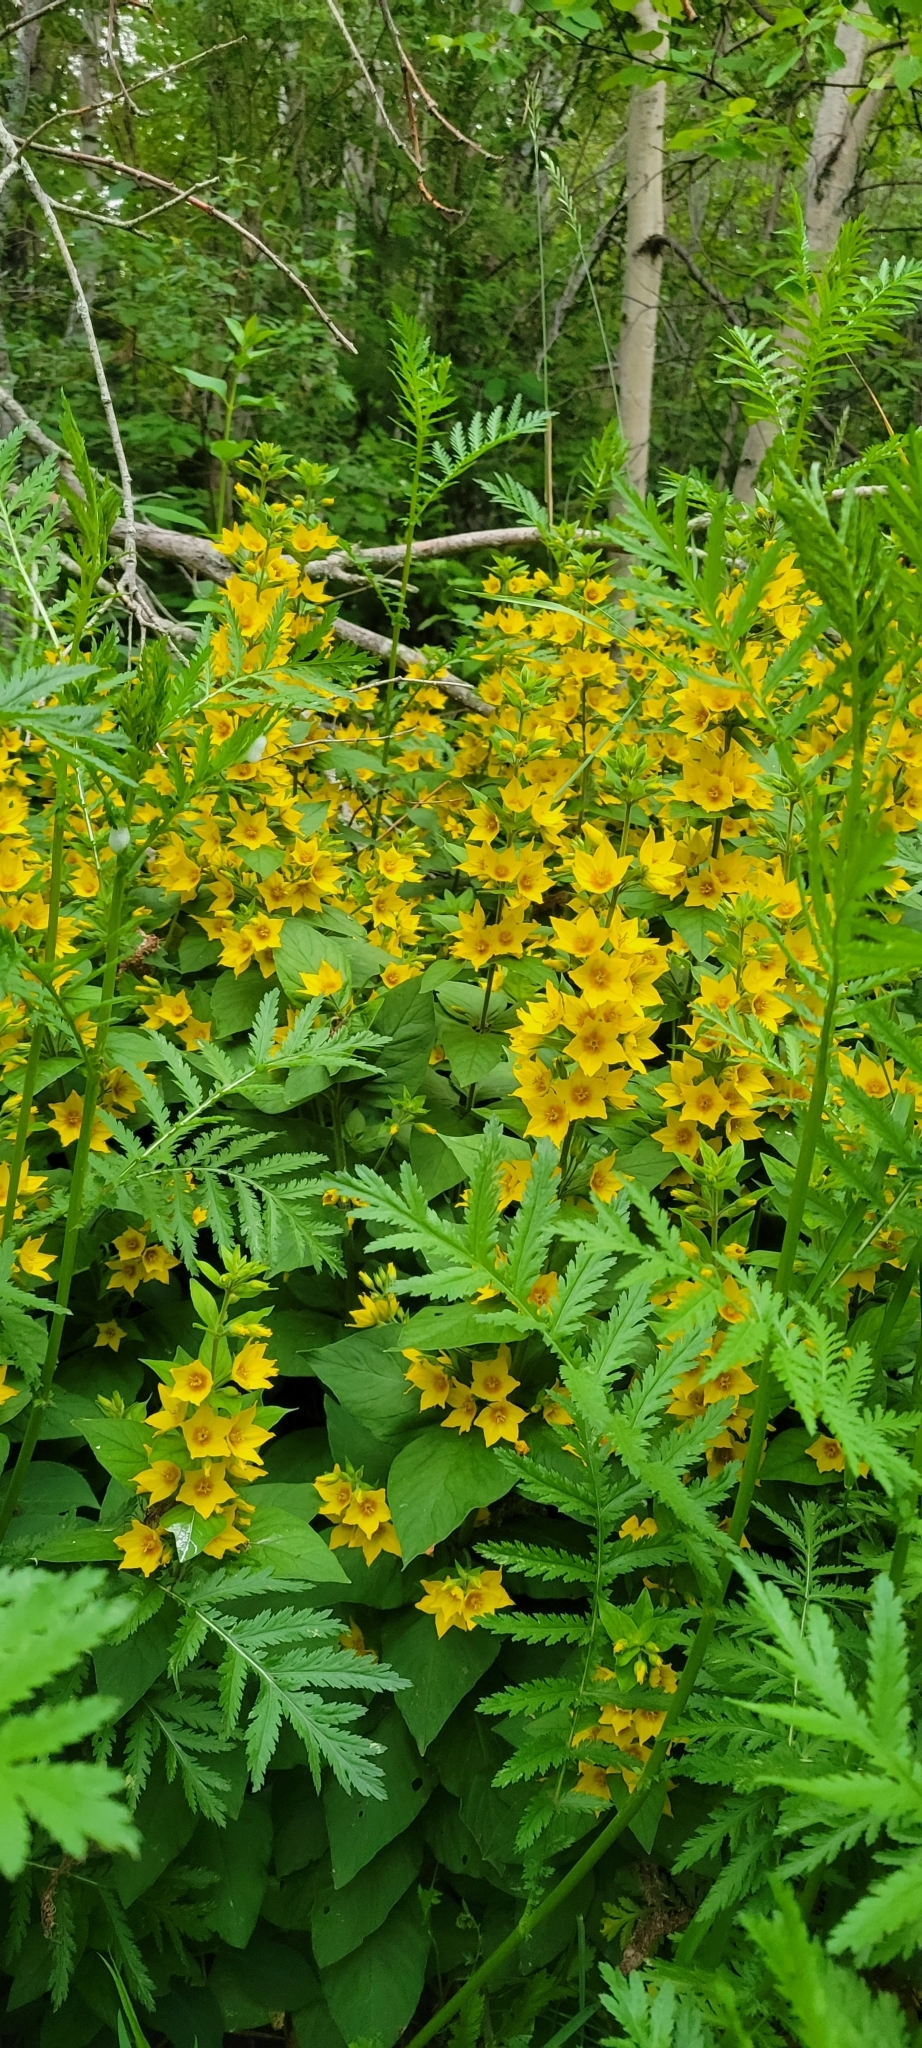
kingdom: Plantae
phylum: Tracheophyta
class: Magnoliopsida
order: Ericales
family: Primulaceae
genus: Lysimachia
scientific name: Lysimachia punctata
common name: Dotted loosestrife
